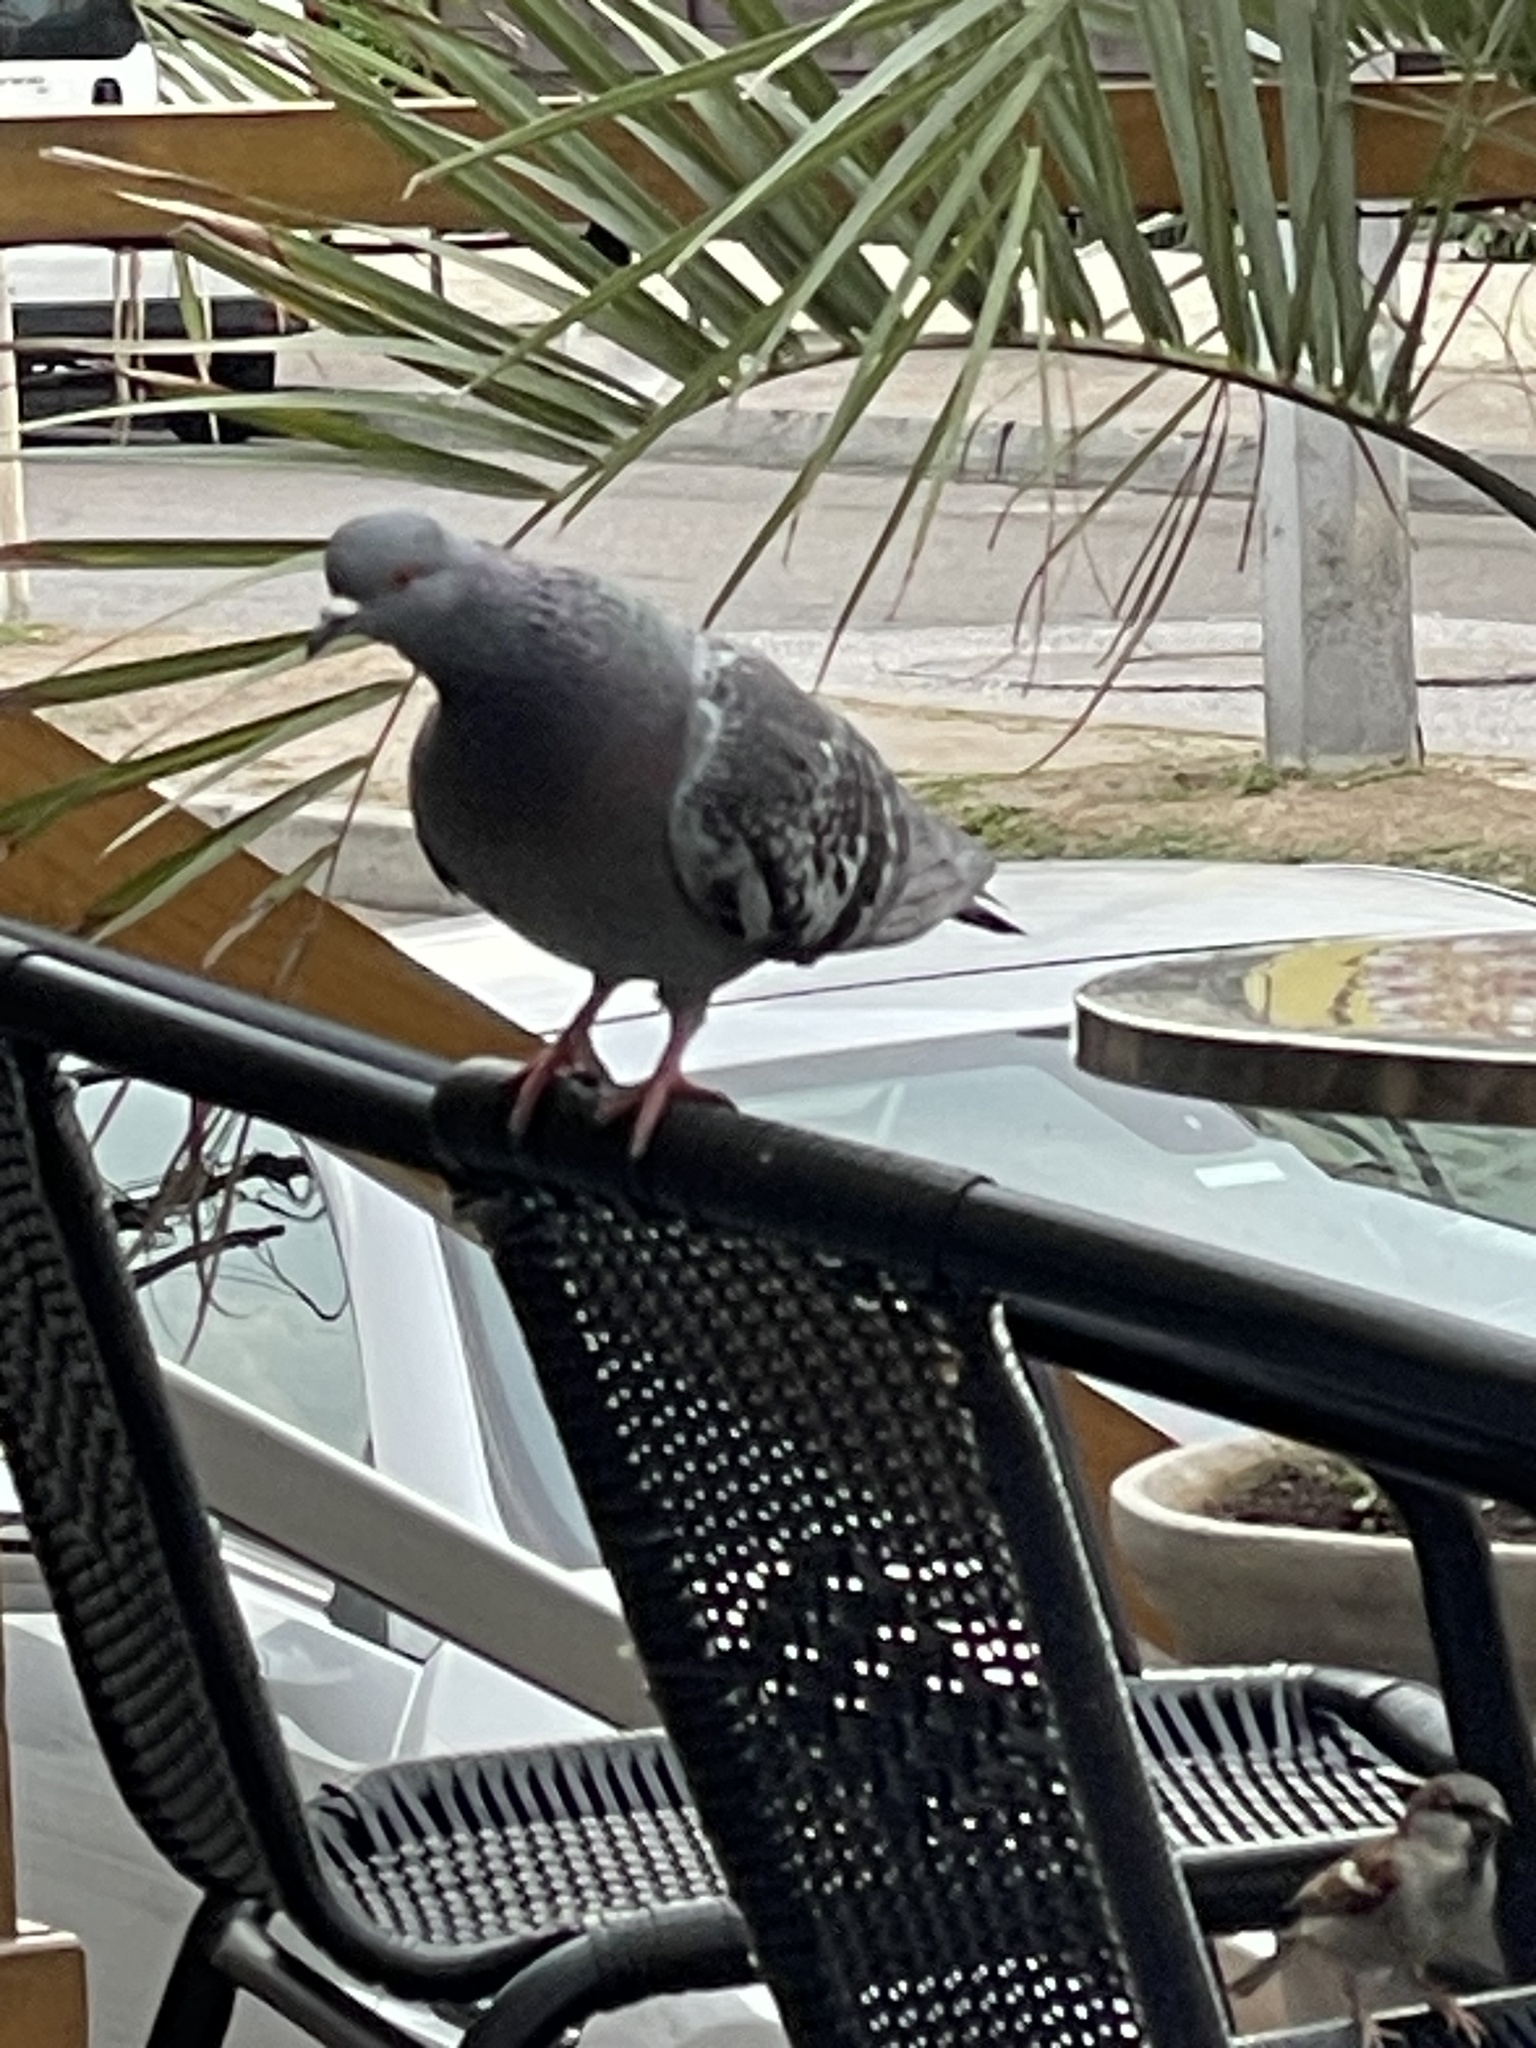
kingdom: Animalia
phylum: Chordata
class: Aves
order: Columbiformes
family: Columbidae
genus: Columba
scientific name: Columba livia
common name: Rock pigeon
